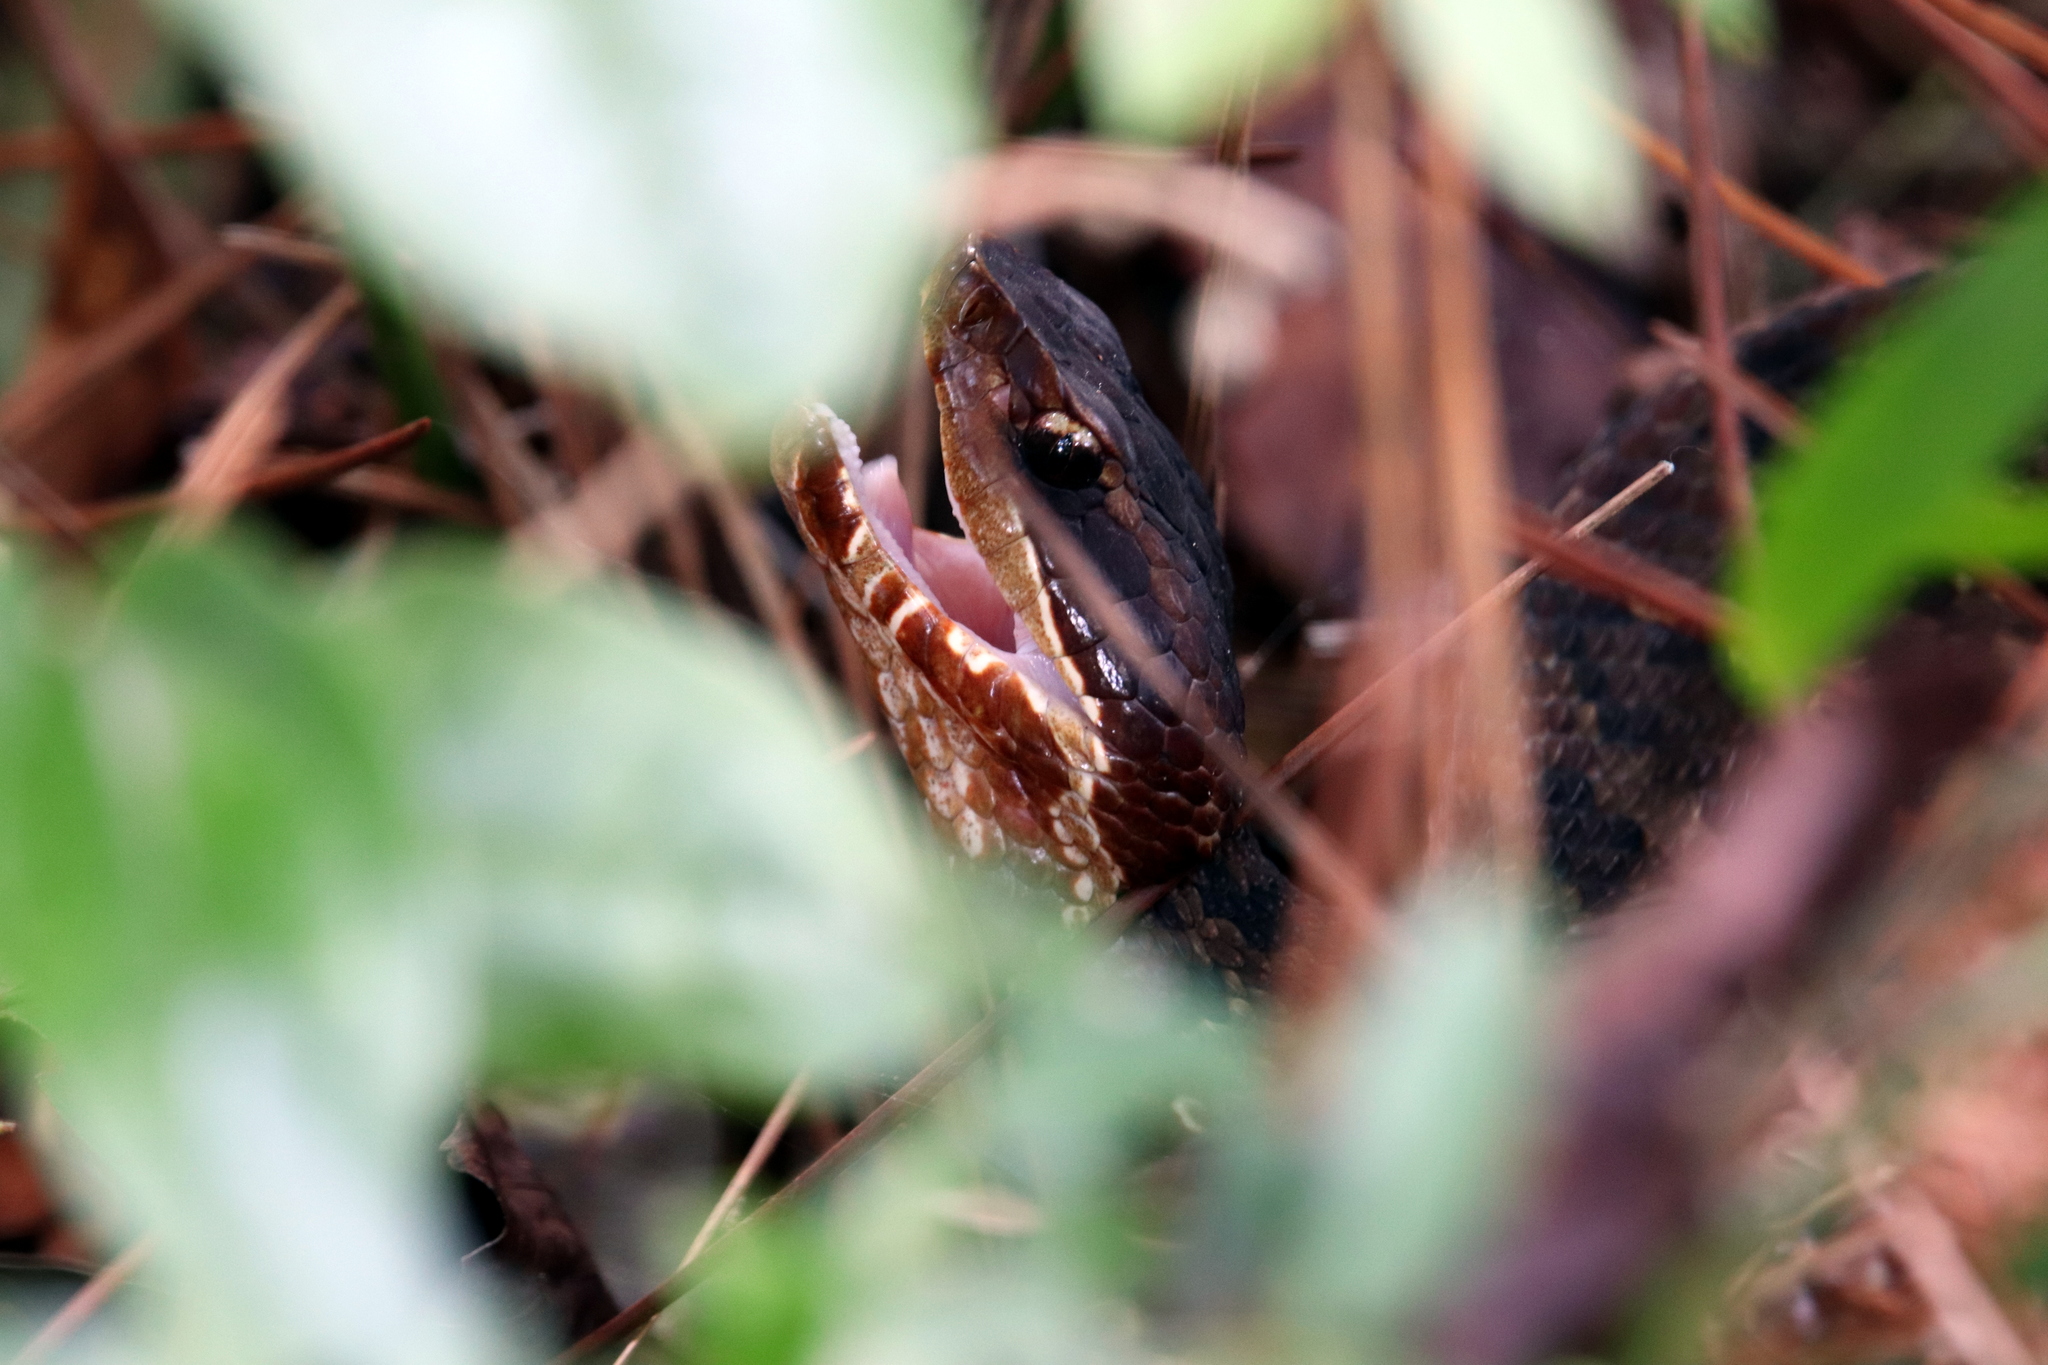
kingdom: Animalia
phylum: Chordata
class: Squamata
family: Viperidae
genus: Agkistrodon
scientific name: Agkistrodon piscivorus
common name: Cottonmouth
